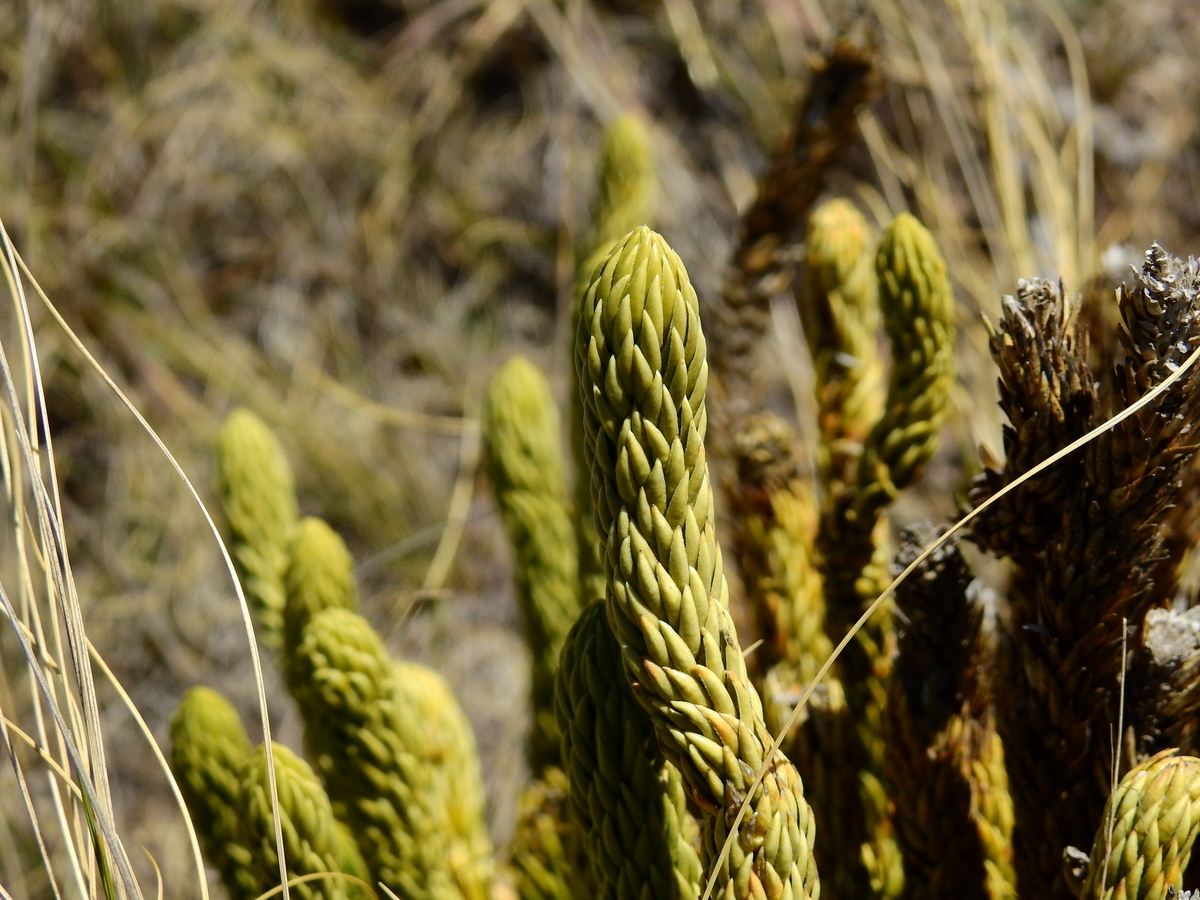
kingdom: Plantae
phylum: Tracheophyta
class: Lycopodiopsida
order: Lycopodiales
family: Lycopodiaceae
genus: Phlegmariurus
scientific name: Phlegmariurus saururus
